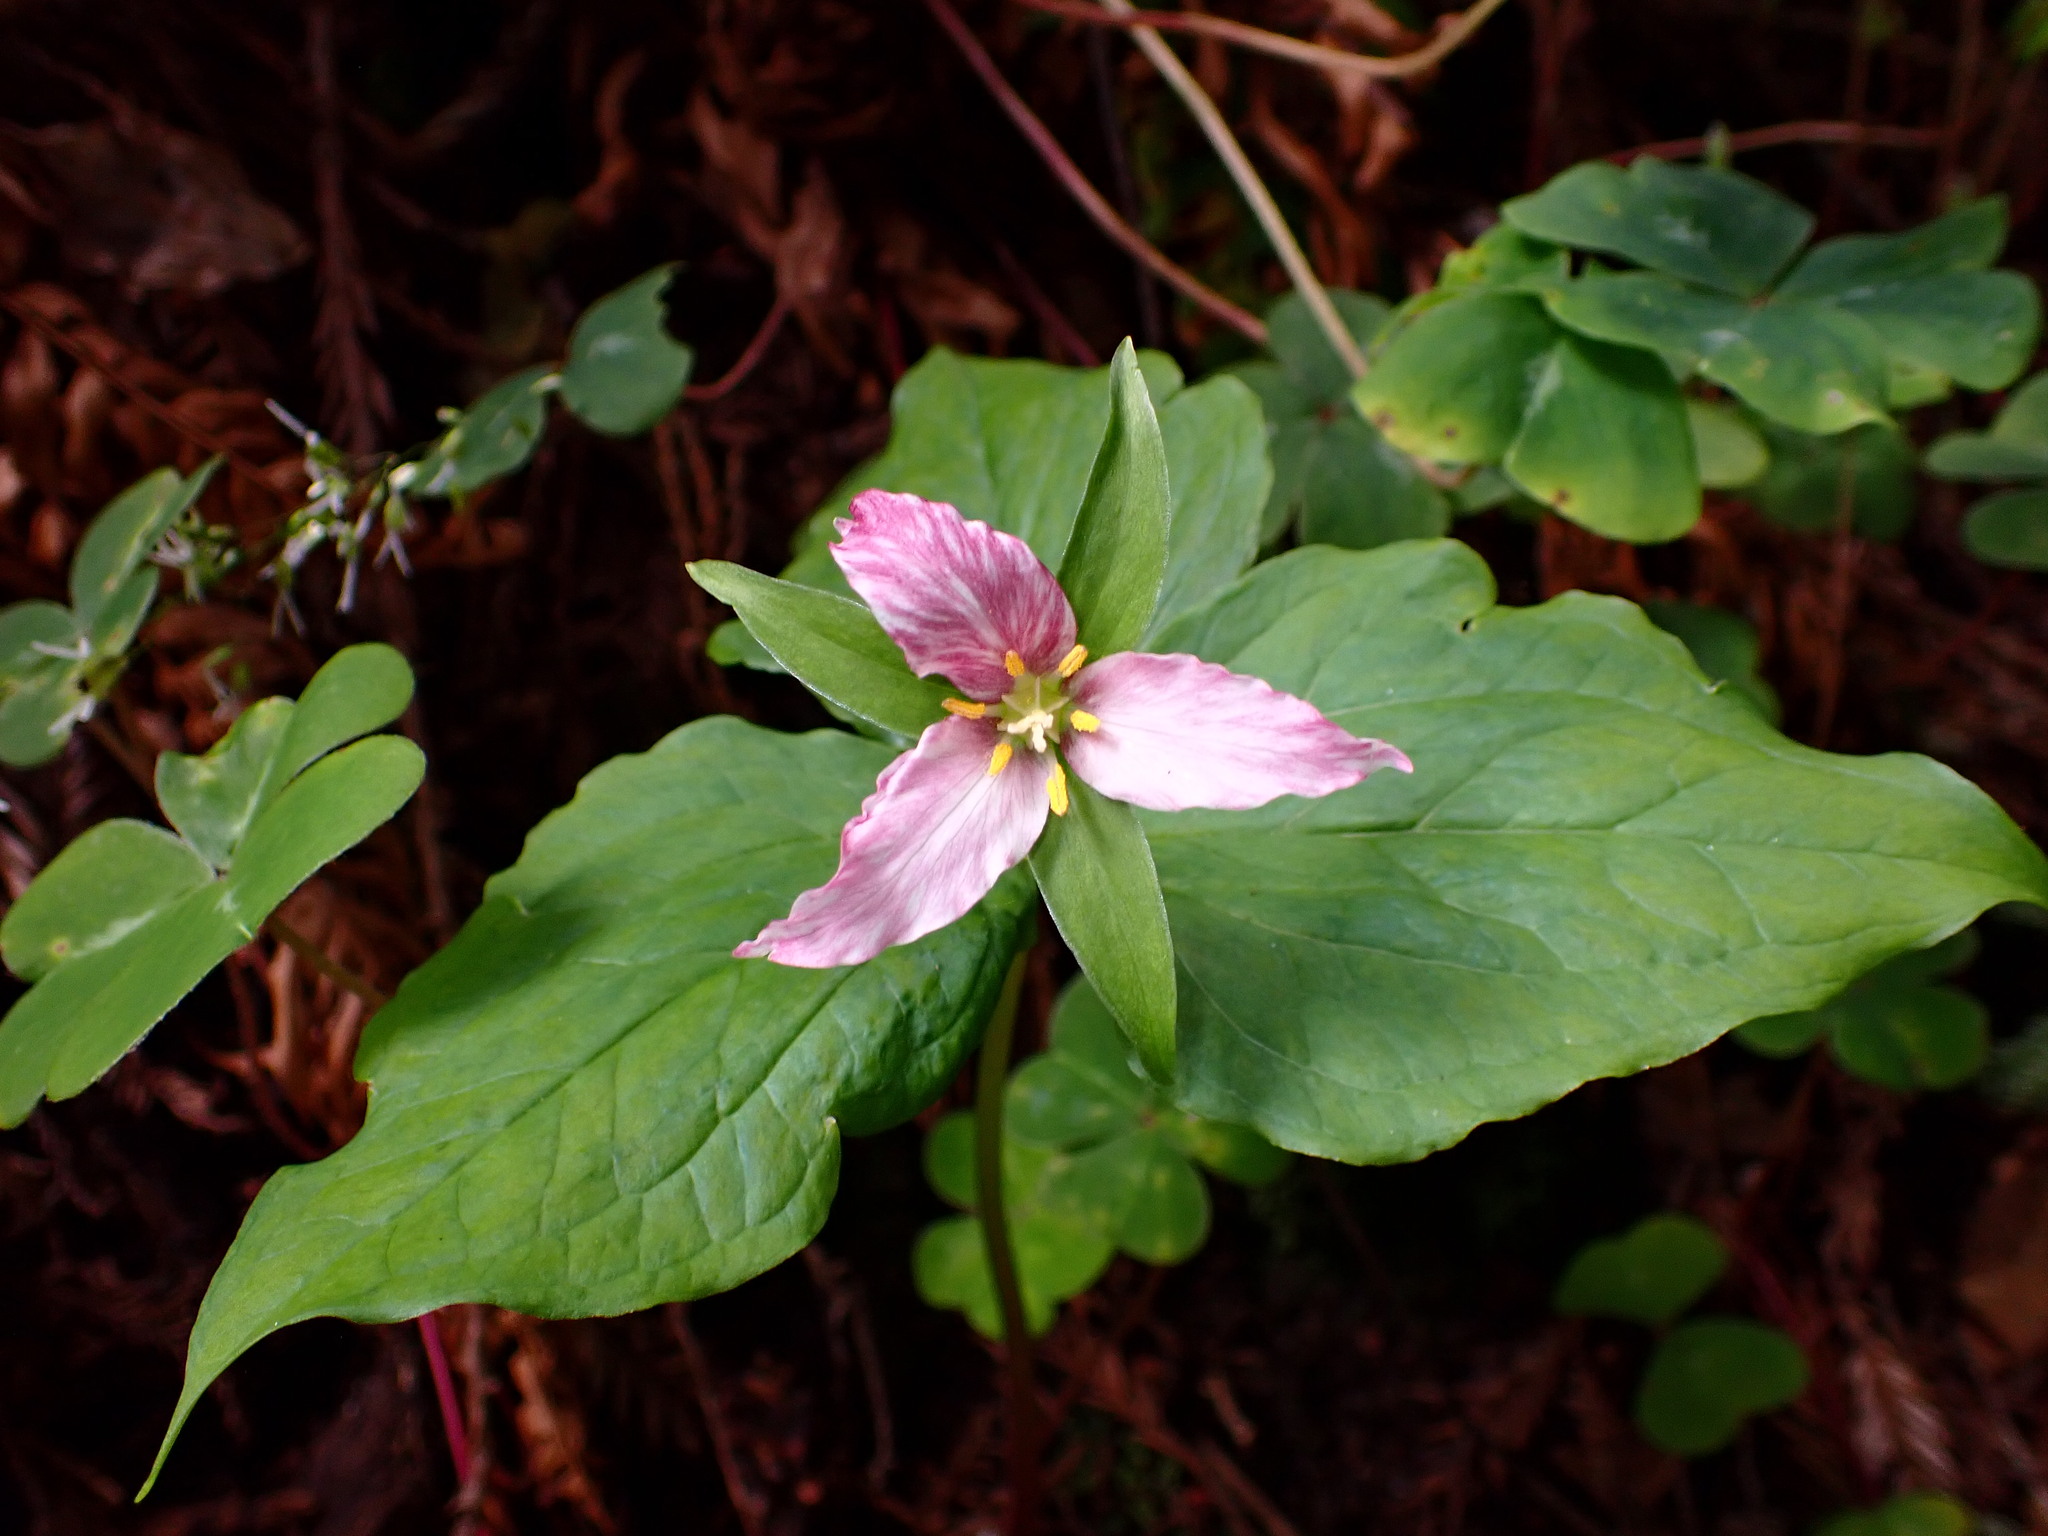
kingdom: Plantae
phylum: Tracheophyta
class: Liliopsida
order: Liliales
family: Melanthiaceae
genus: Trillium
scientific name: Trillium ovatum
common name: Pacific trillium
